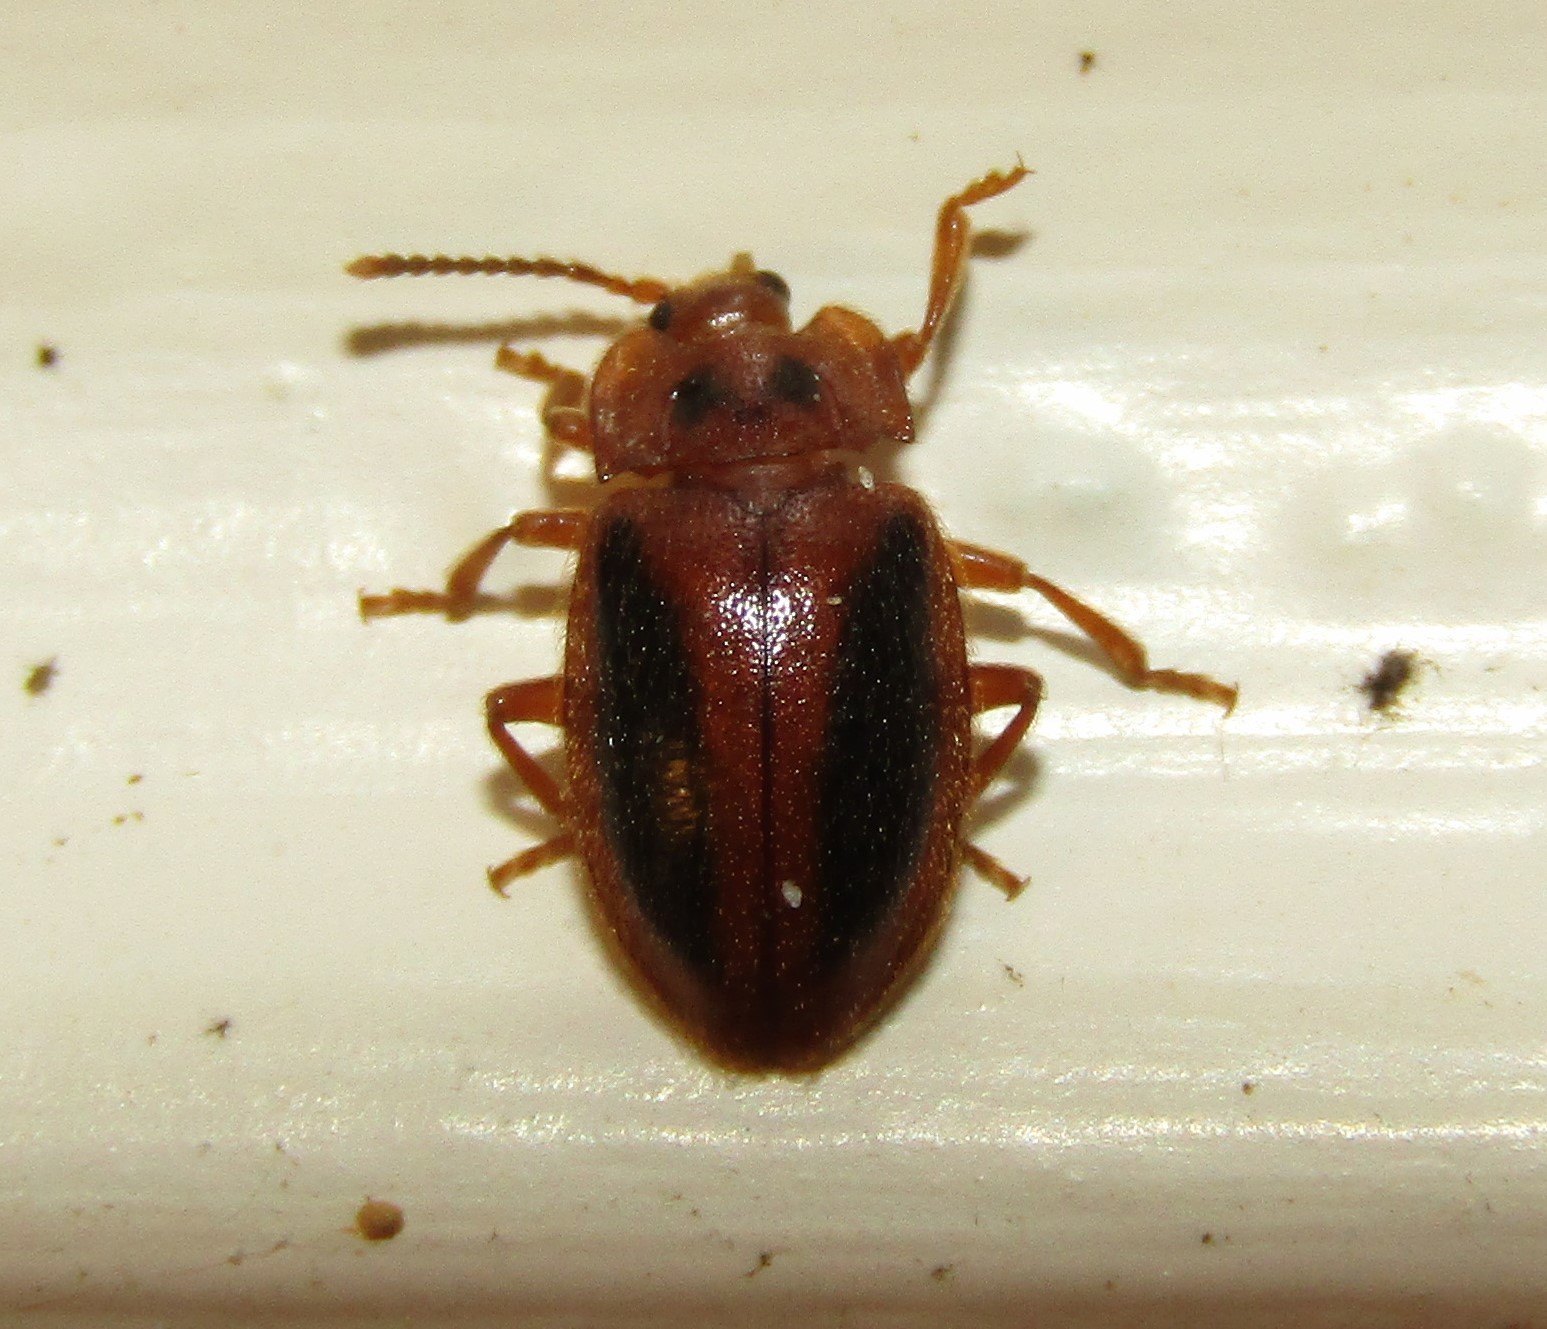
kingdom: Animalia
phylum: Arthropoda
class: Insecta
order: Coleoptera
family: Endomychidae
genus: Epipocus
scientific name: Epipocus punctatus
